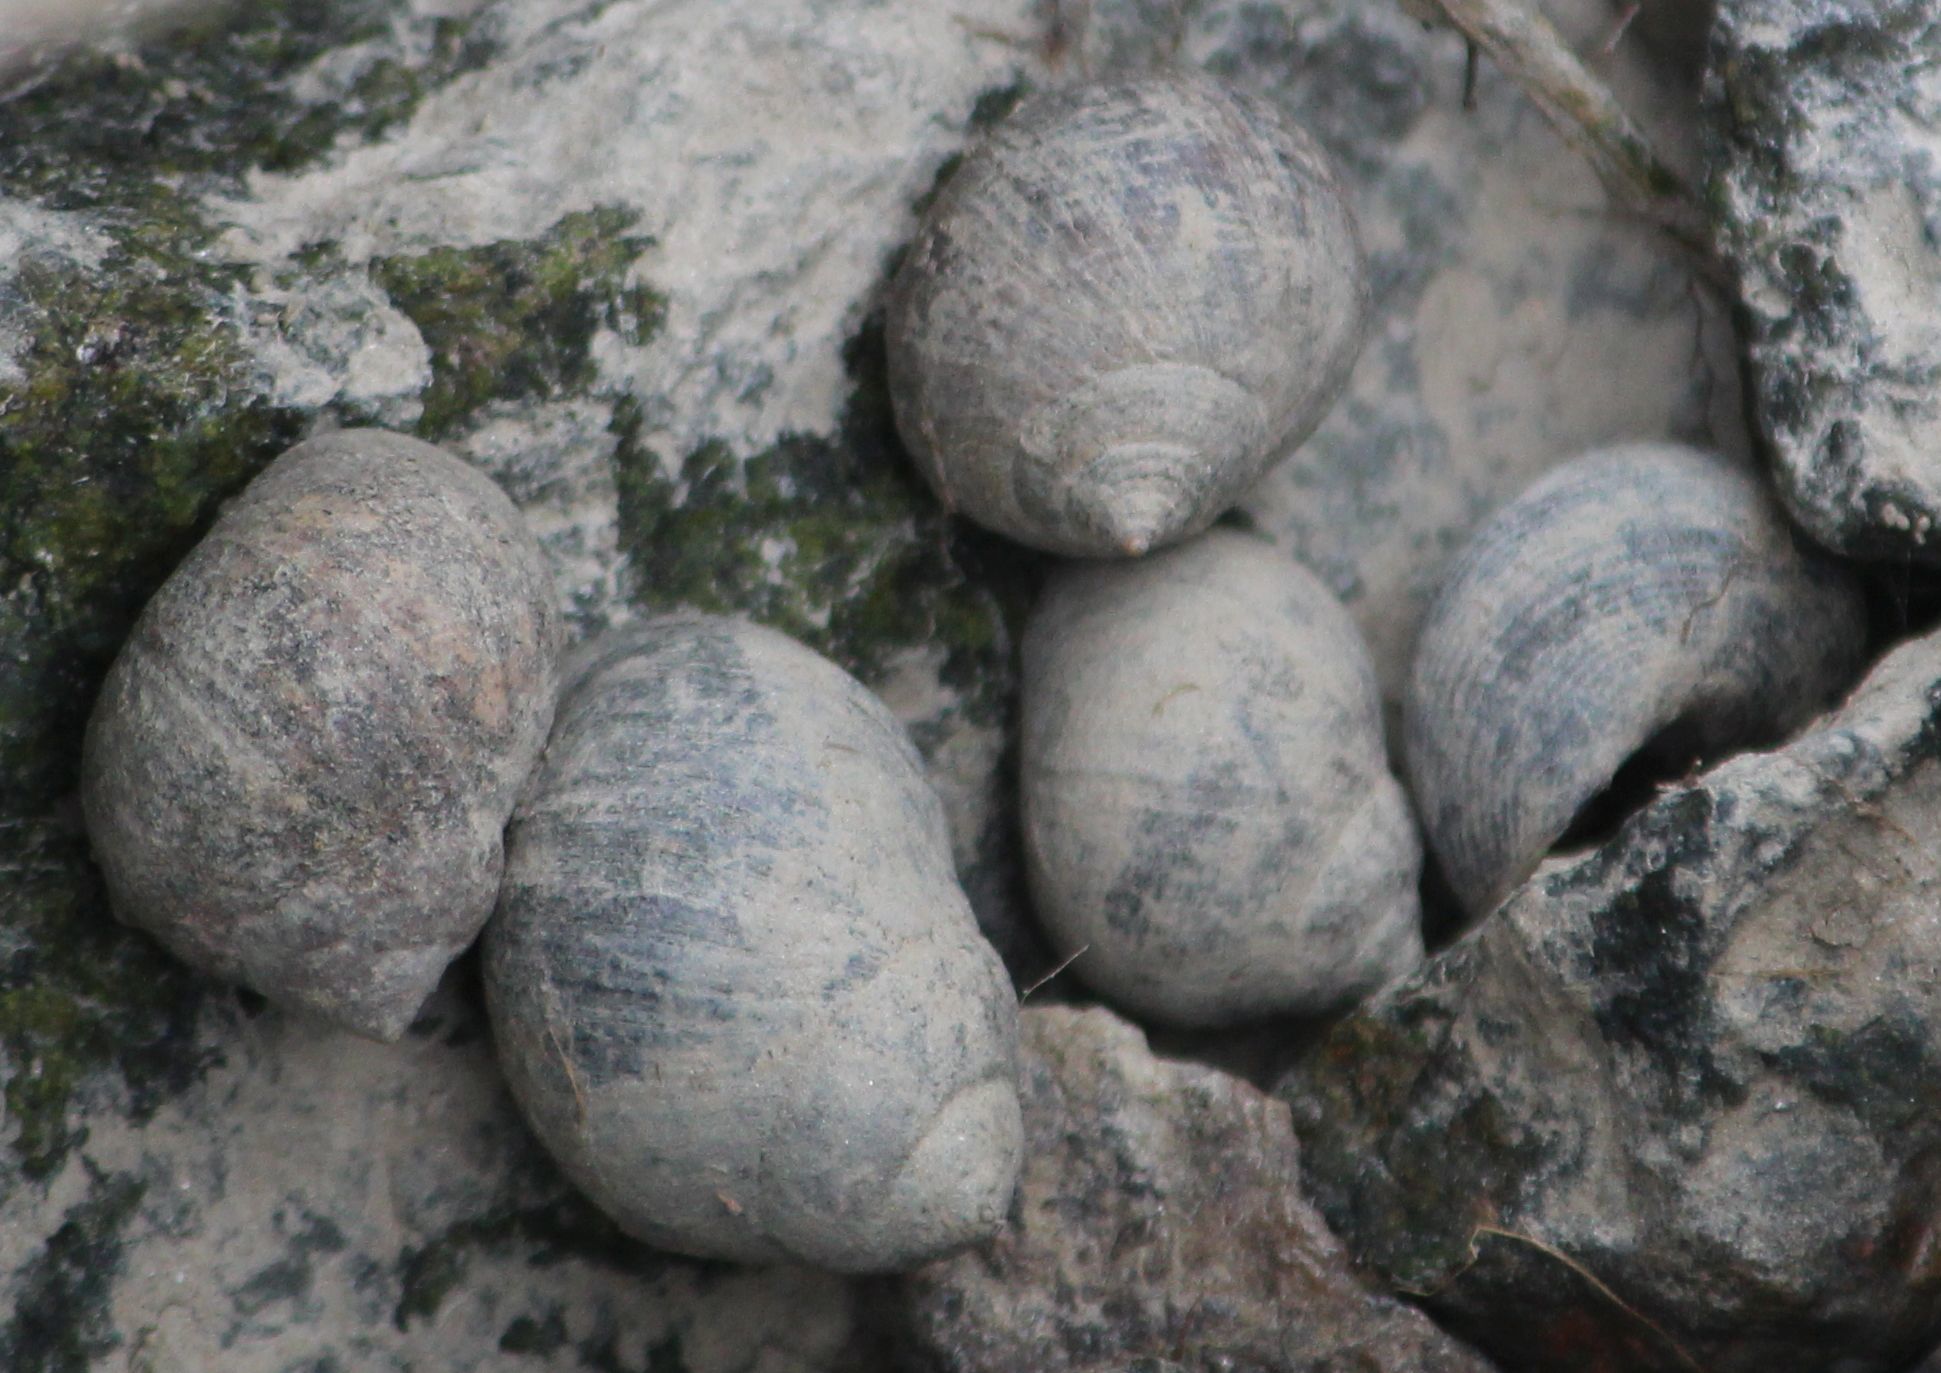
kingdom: Animalia
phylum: Mollusca
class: Gastropoda
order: Littorinimorpha
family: Littorinidae
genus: Littorina
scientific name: Littorina littorea
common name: Common periwinkle
